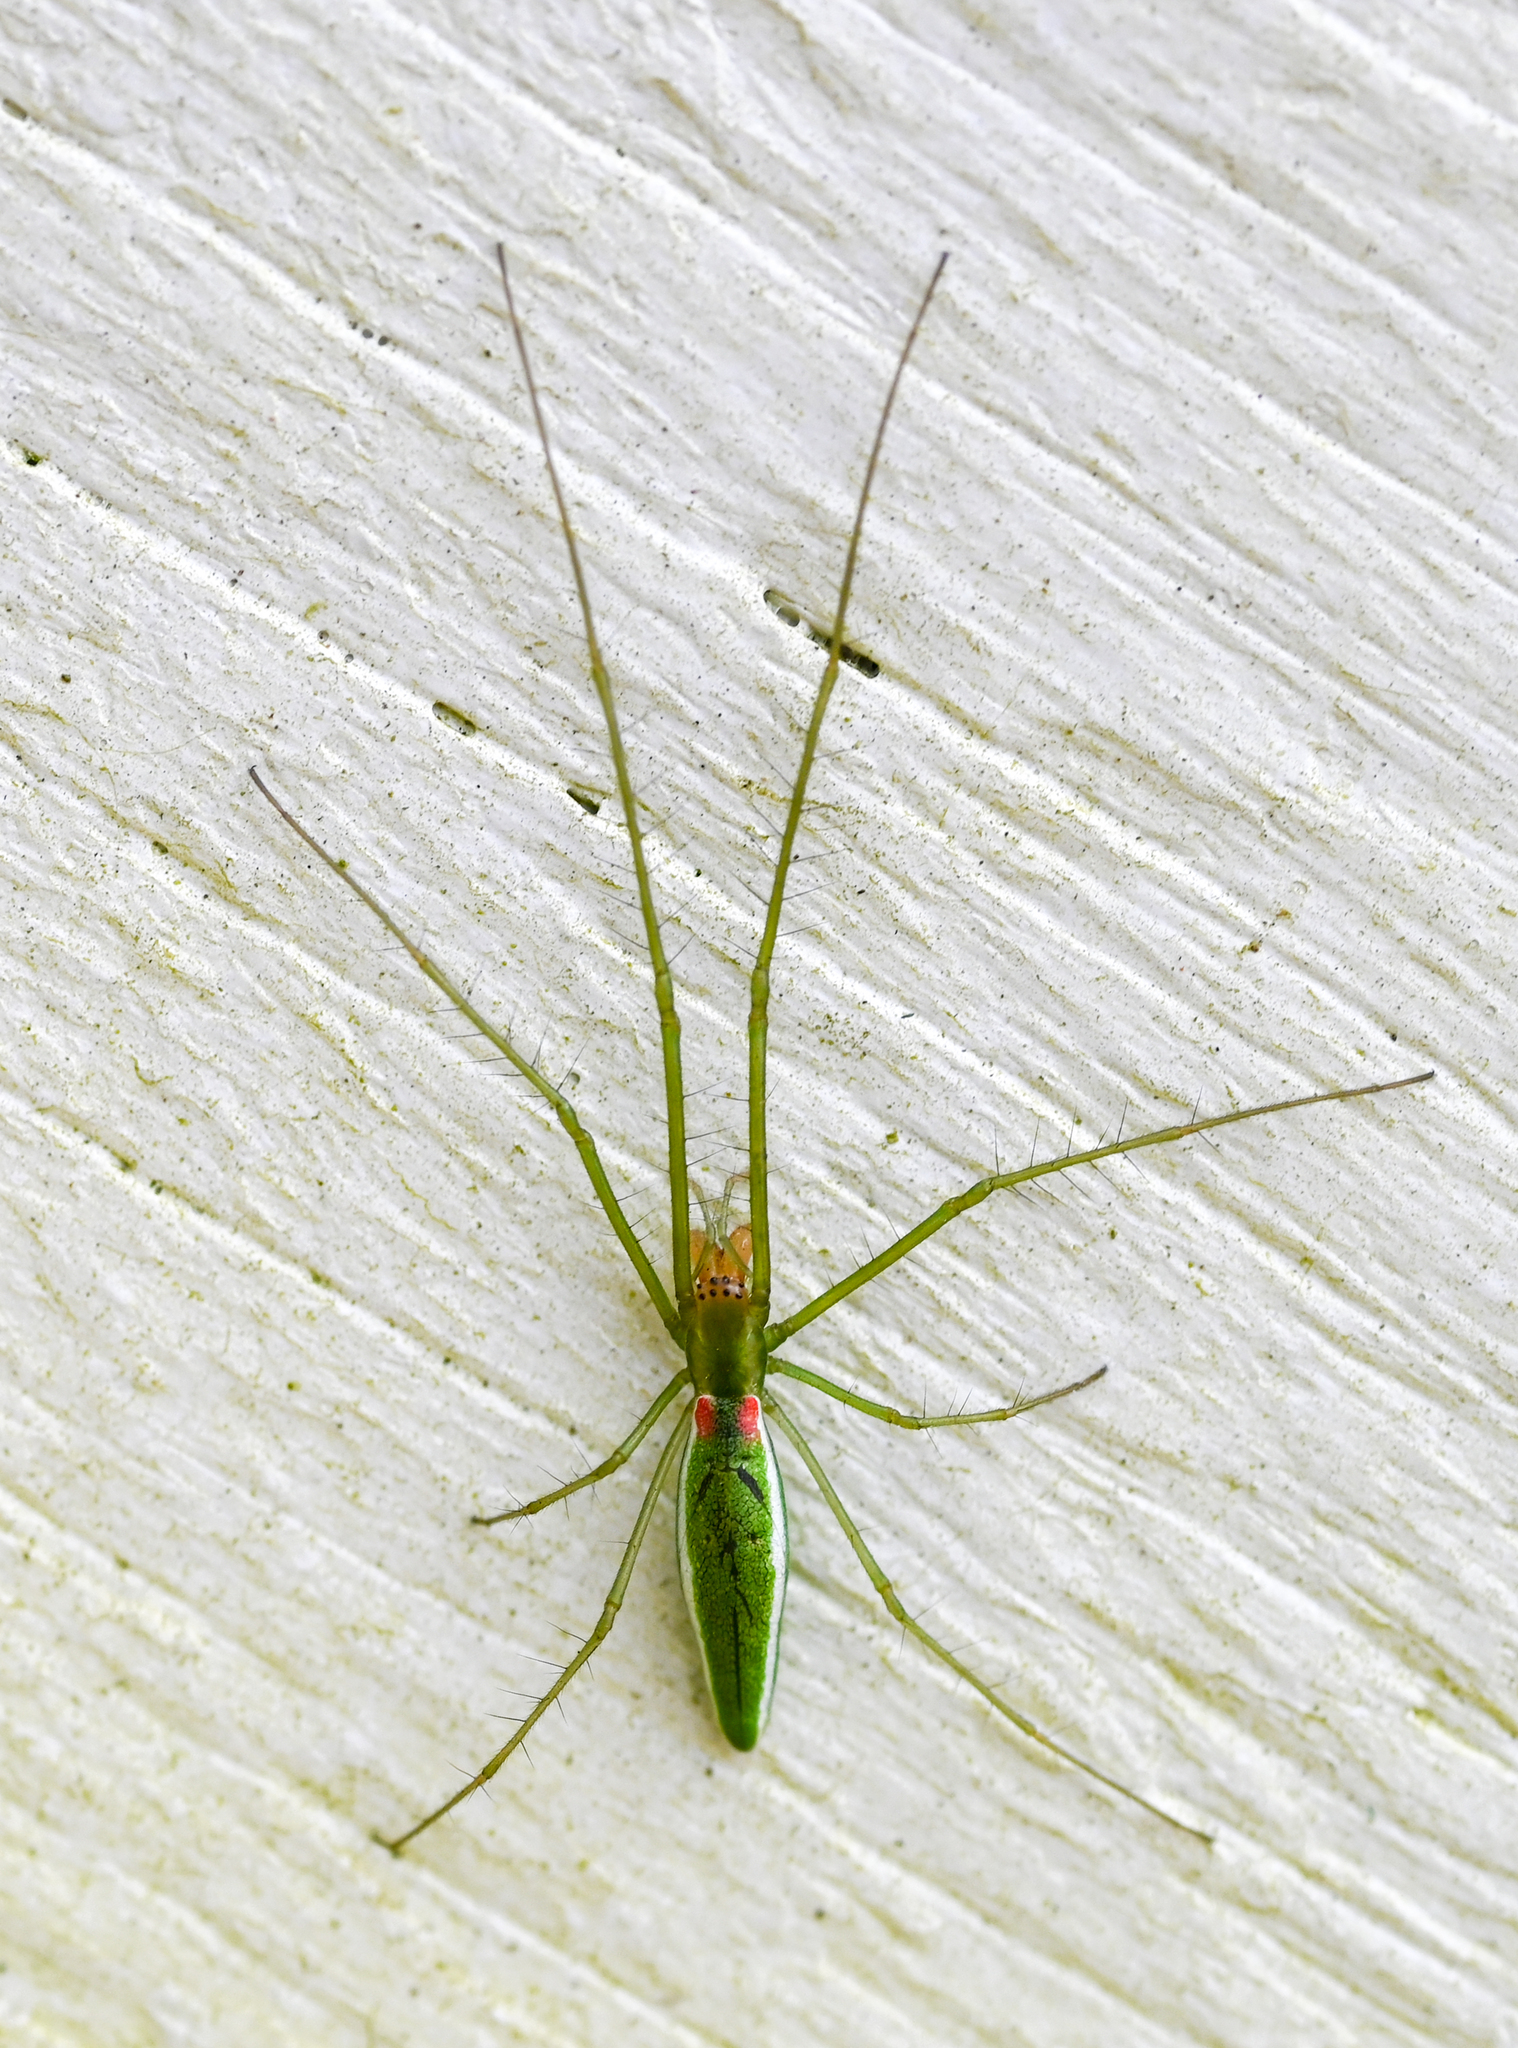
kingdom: Animalia
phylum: Arthropoda
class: Arachnida
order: Araneae
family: Tetragnathidae
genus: Tetragnatha
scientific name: Tetragnatha viridis
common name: Green long-jawed spider
